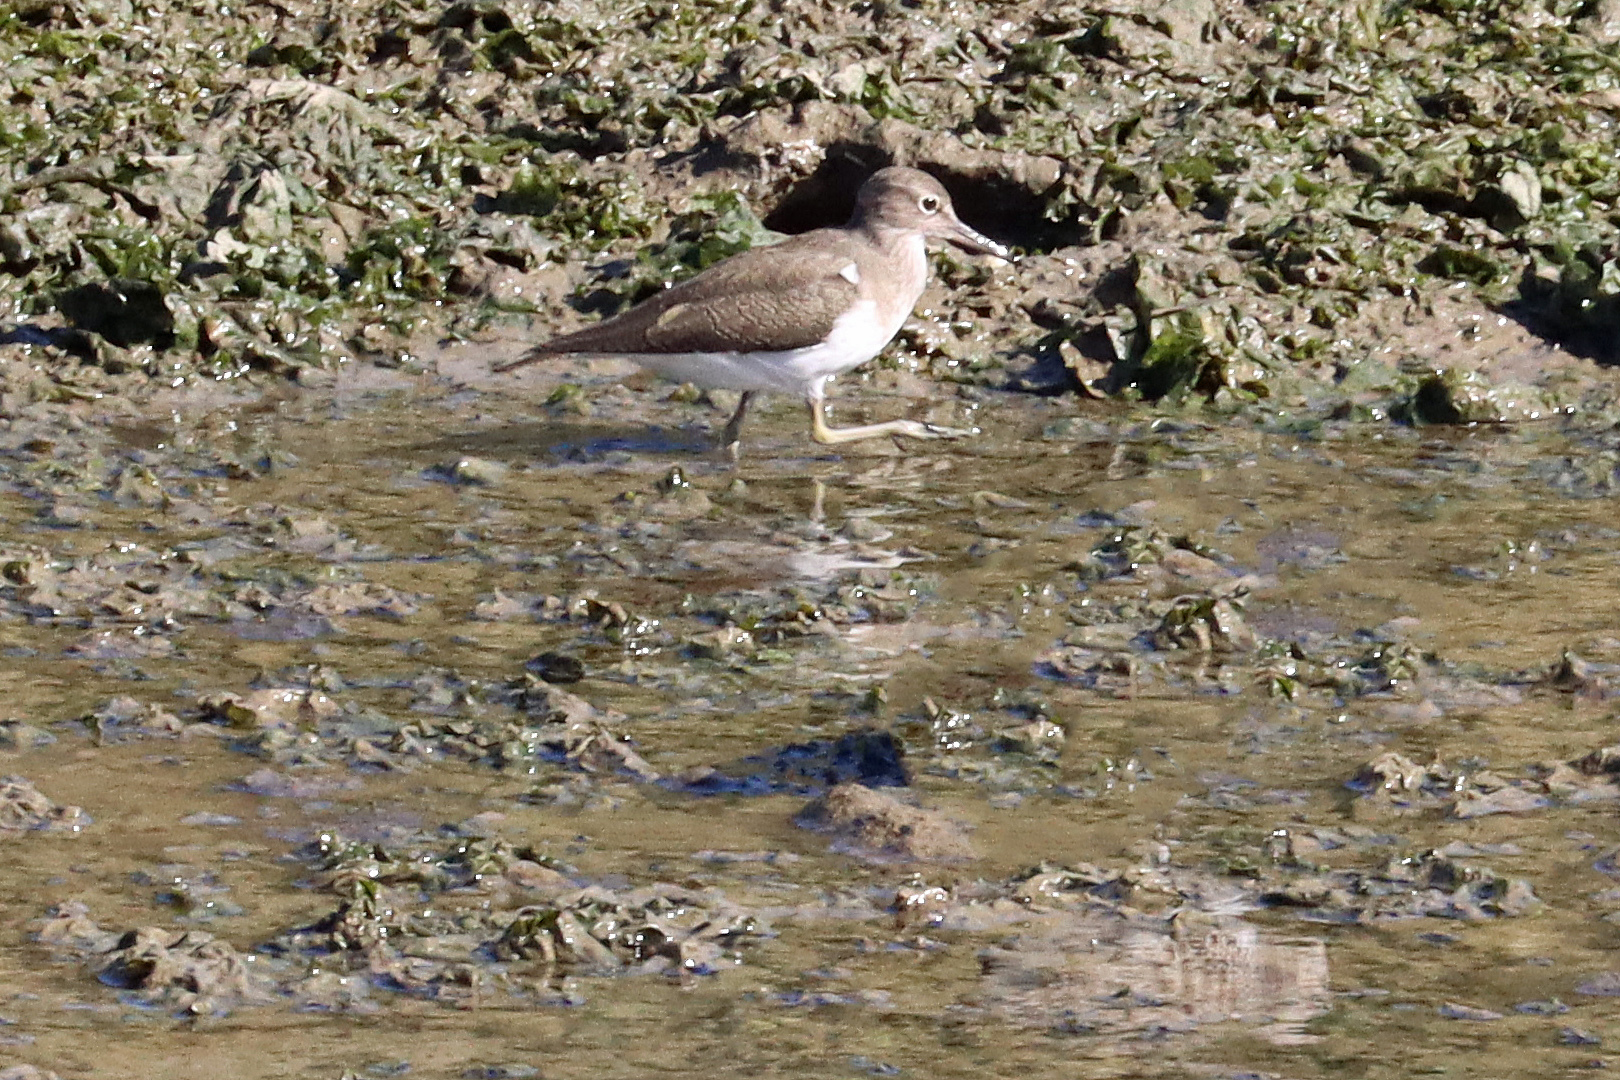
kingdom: Animalia
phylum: Chordata
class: Aves
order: Charadriiformes
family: Scolopacidae
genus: Actitis
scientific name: Actitis hypoleucos
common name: Common sandpiper
